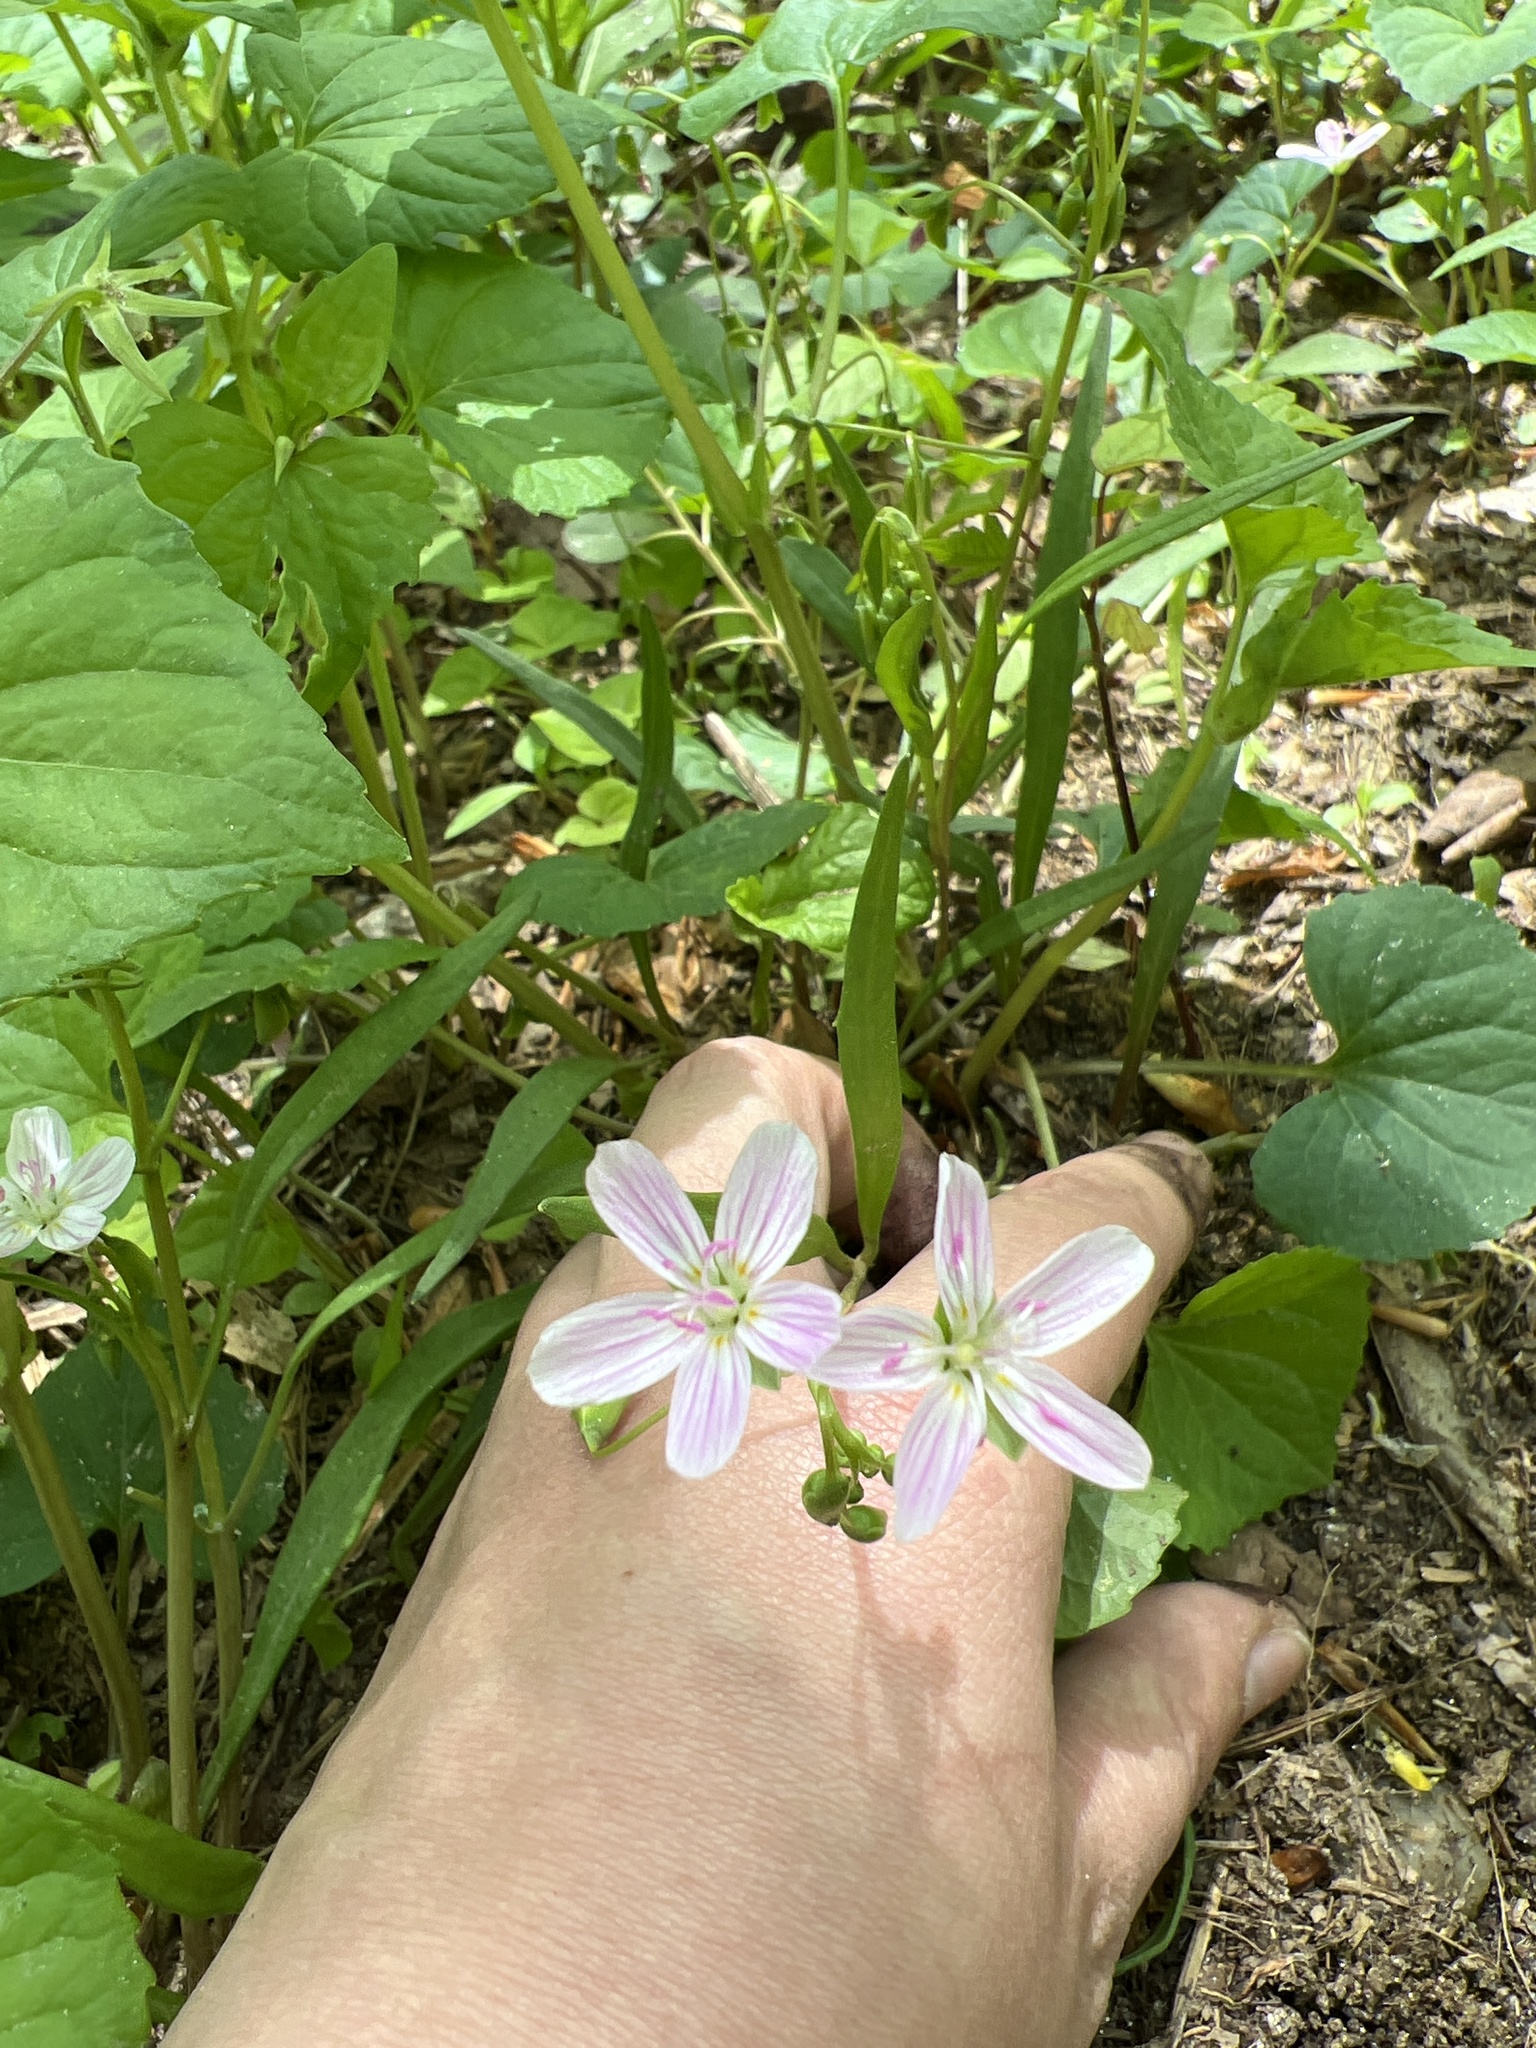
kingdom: Plantae
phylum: Tracheophyta
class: Magnoliopsida
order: Caryophyllales
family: Montiaceae
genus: Claytonia
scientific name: Claytonia virginica
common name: Virginia springbeauty
